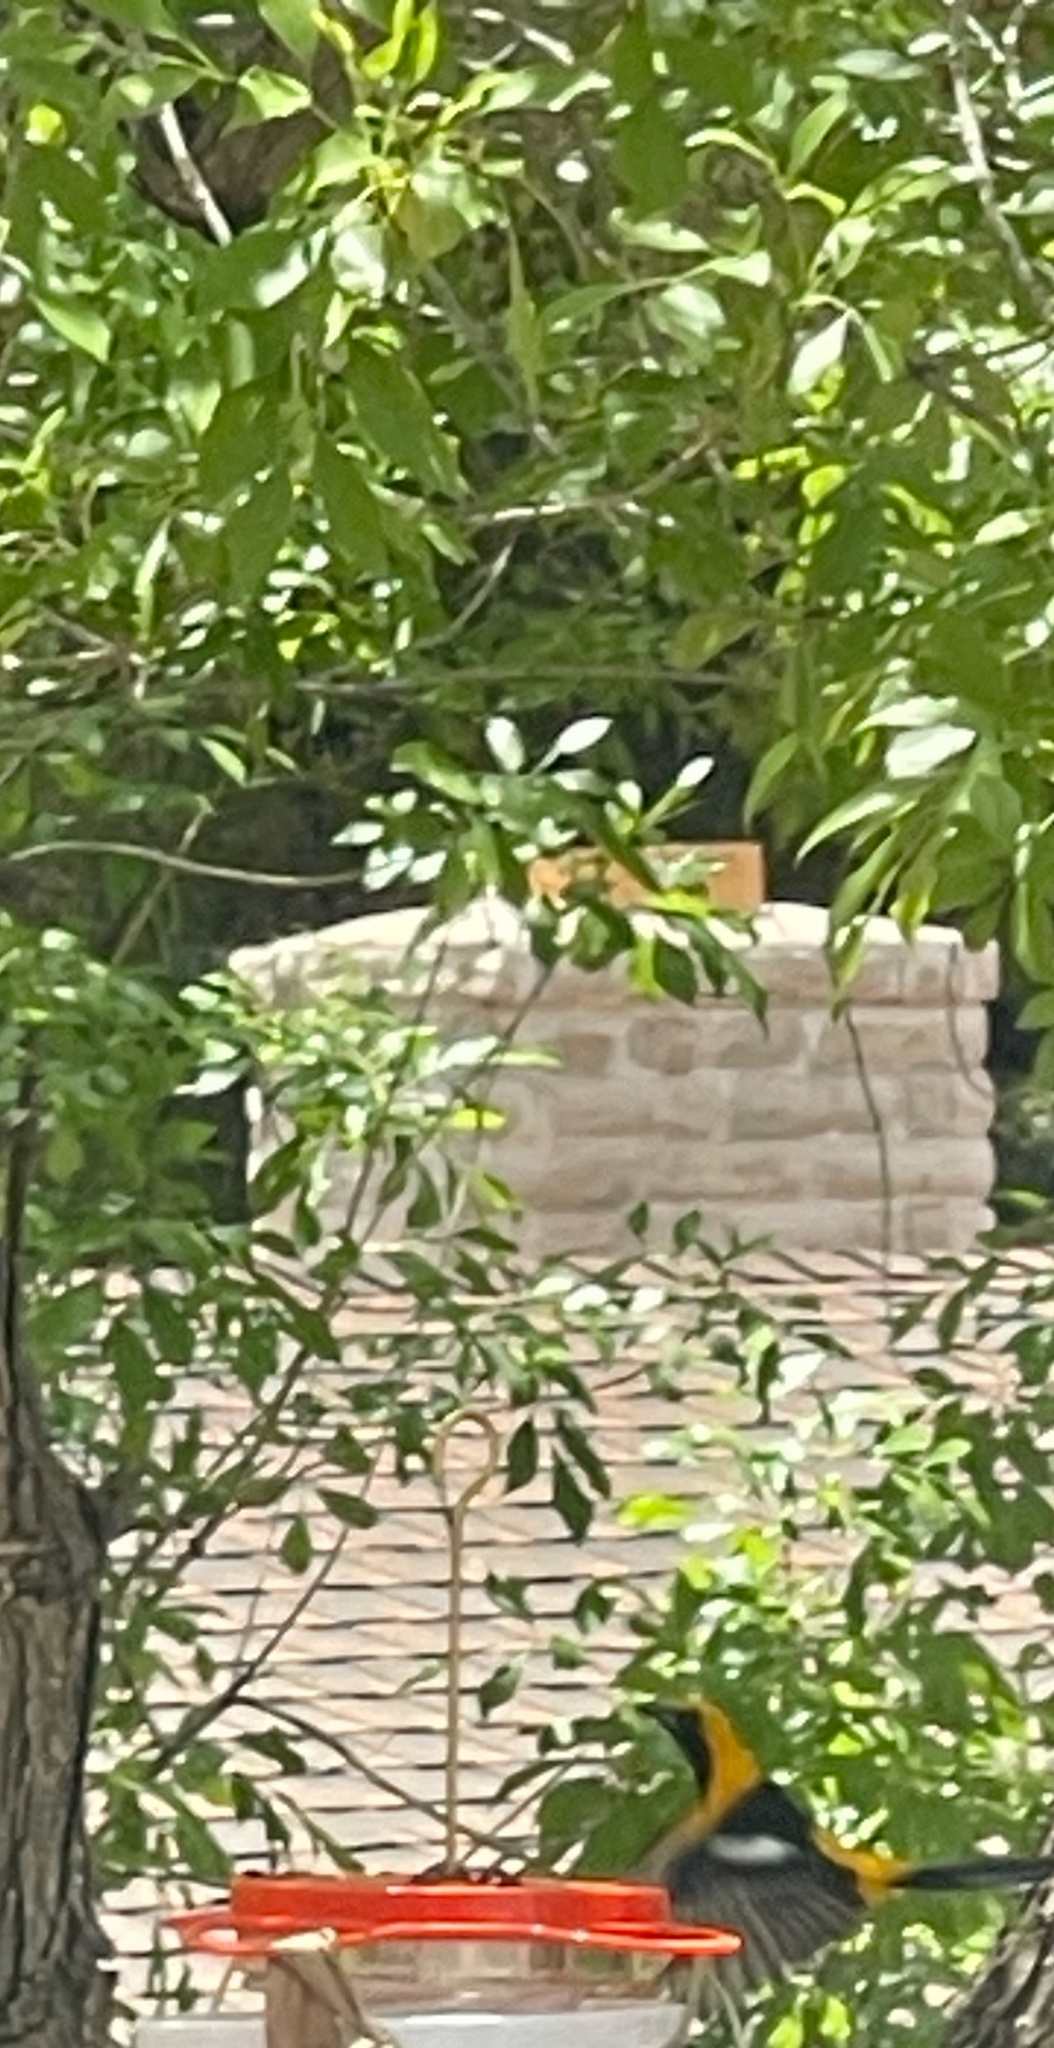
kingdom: Animalia
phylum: Chordata
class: Aves
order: Passeriformes
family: Icteridae
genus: Icterus
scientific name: Icterus cucullatus
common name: Hooded oriole
